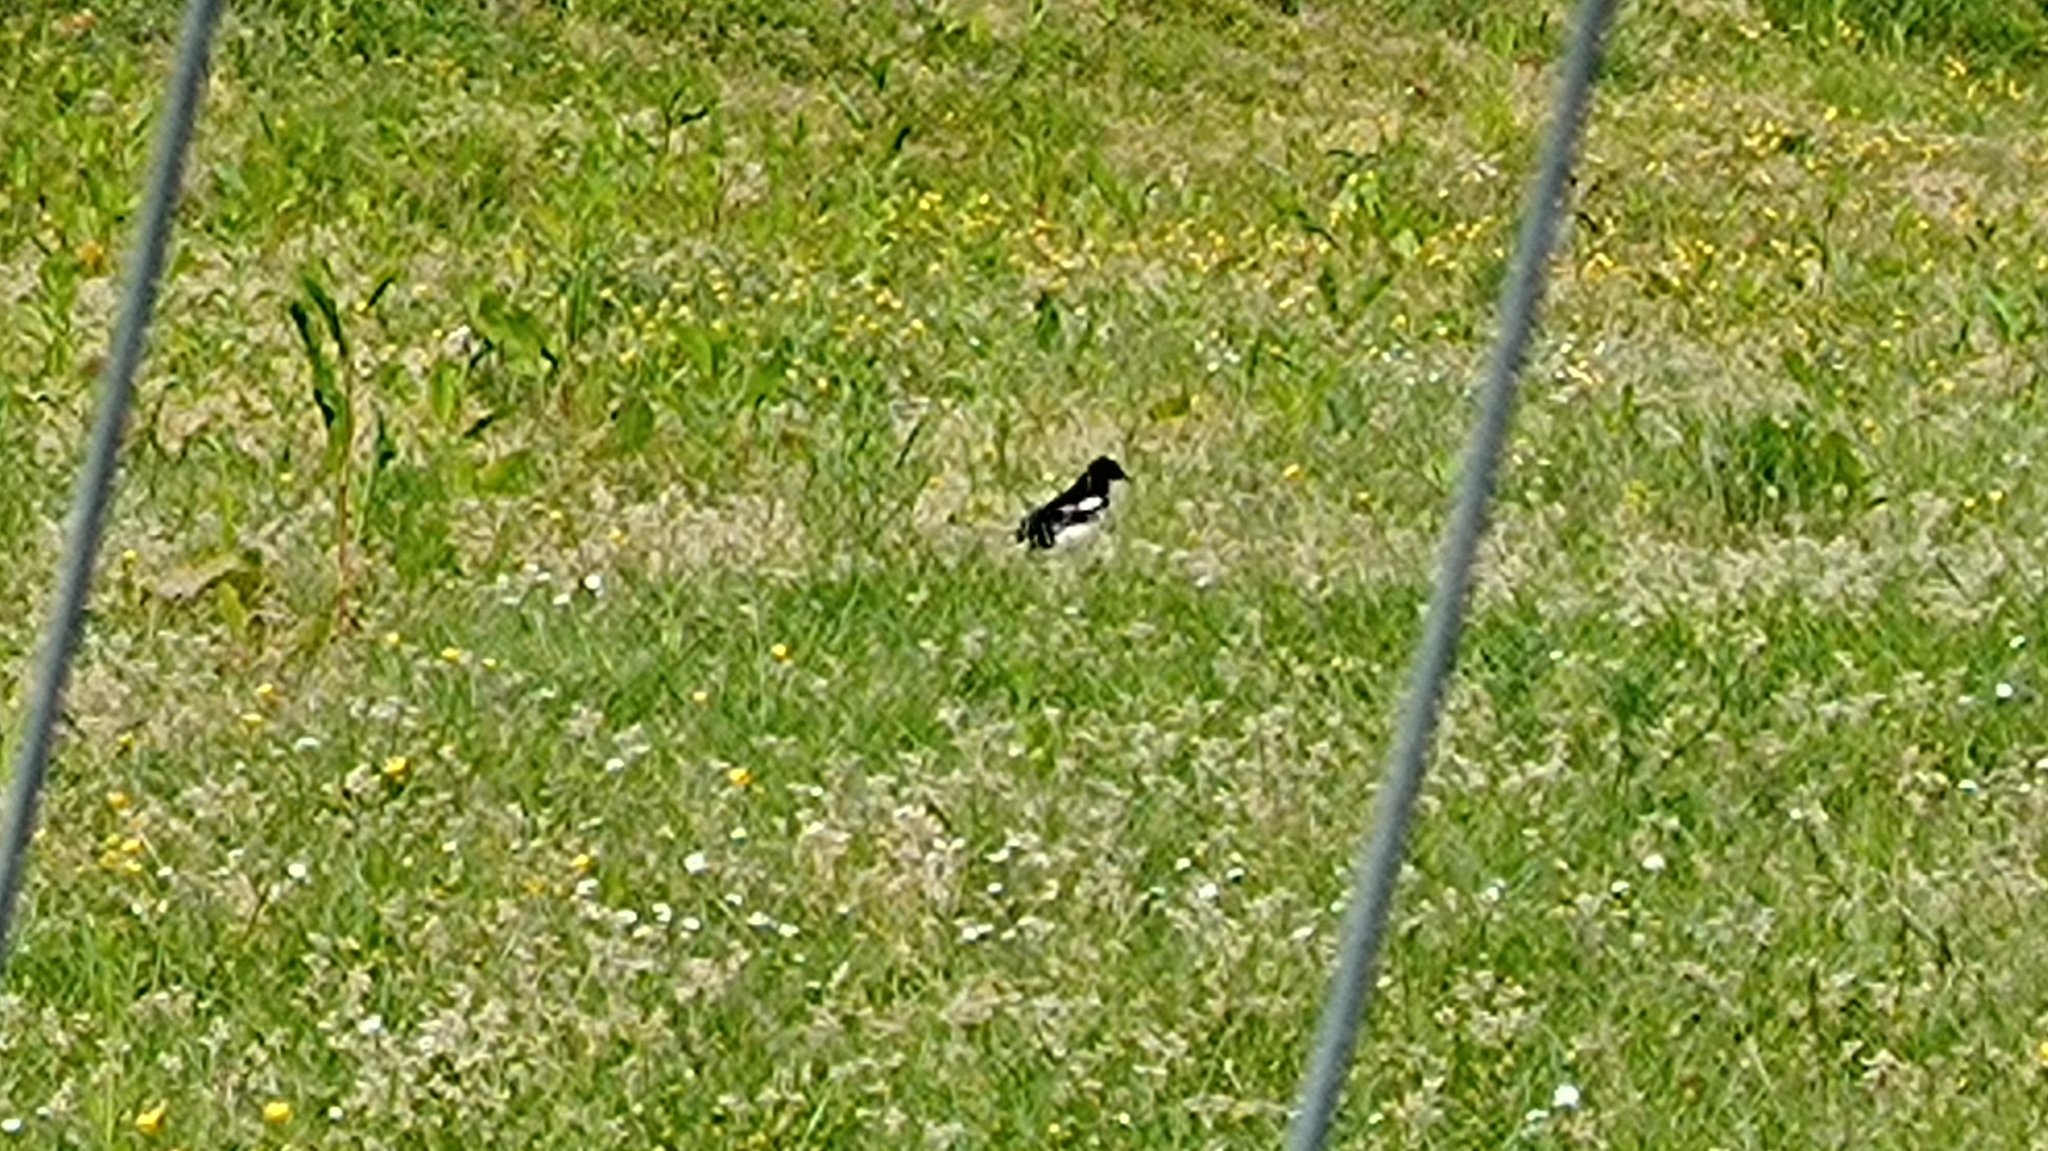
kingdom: Animalia
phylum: Chordata
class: Aves
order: Passeriformes
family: Corvidae
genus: Pica
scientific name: Pica pica
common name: Eurasian magpie
